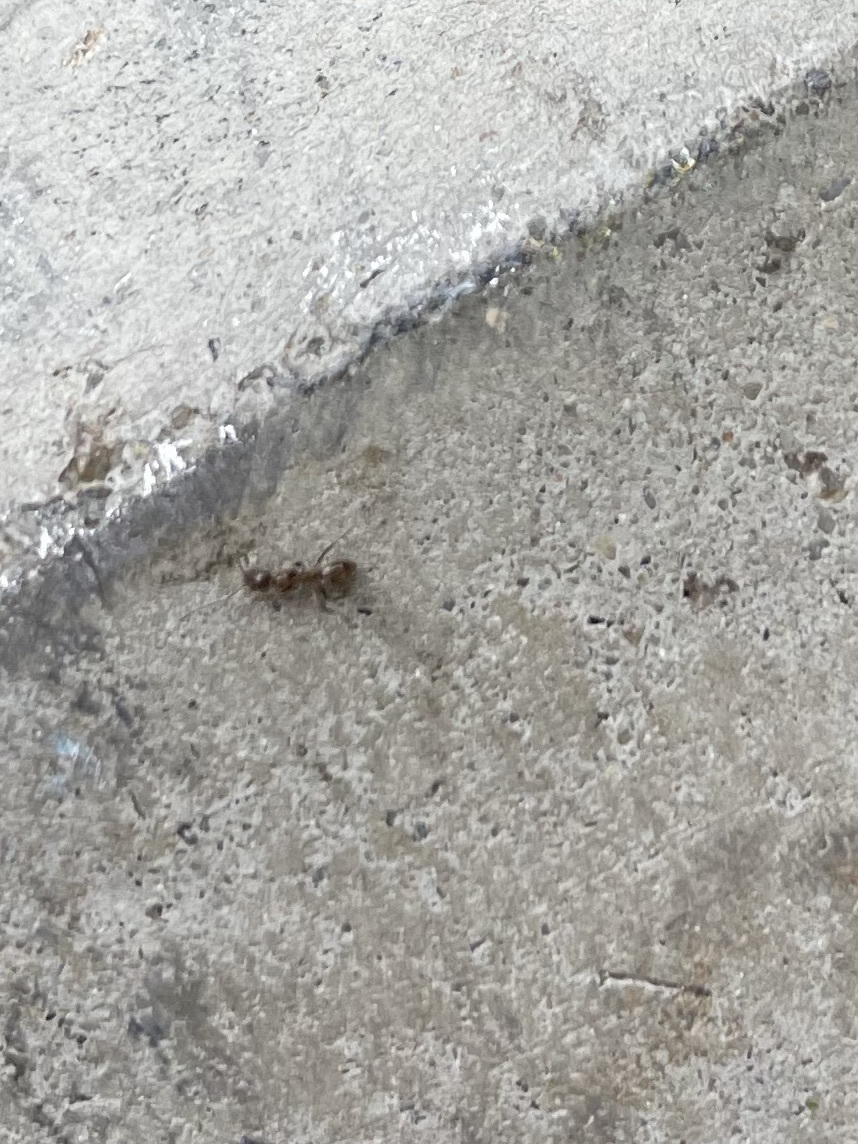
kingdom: Animalia
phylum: Arthropoda
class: Insecta
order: Hymenoptera
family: Formicidae
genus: Linepithema
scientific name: Linepithema humile
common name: Argentine ant
